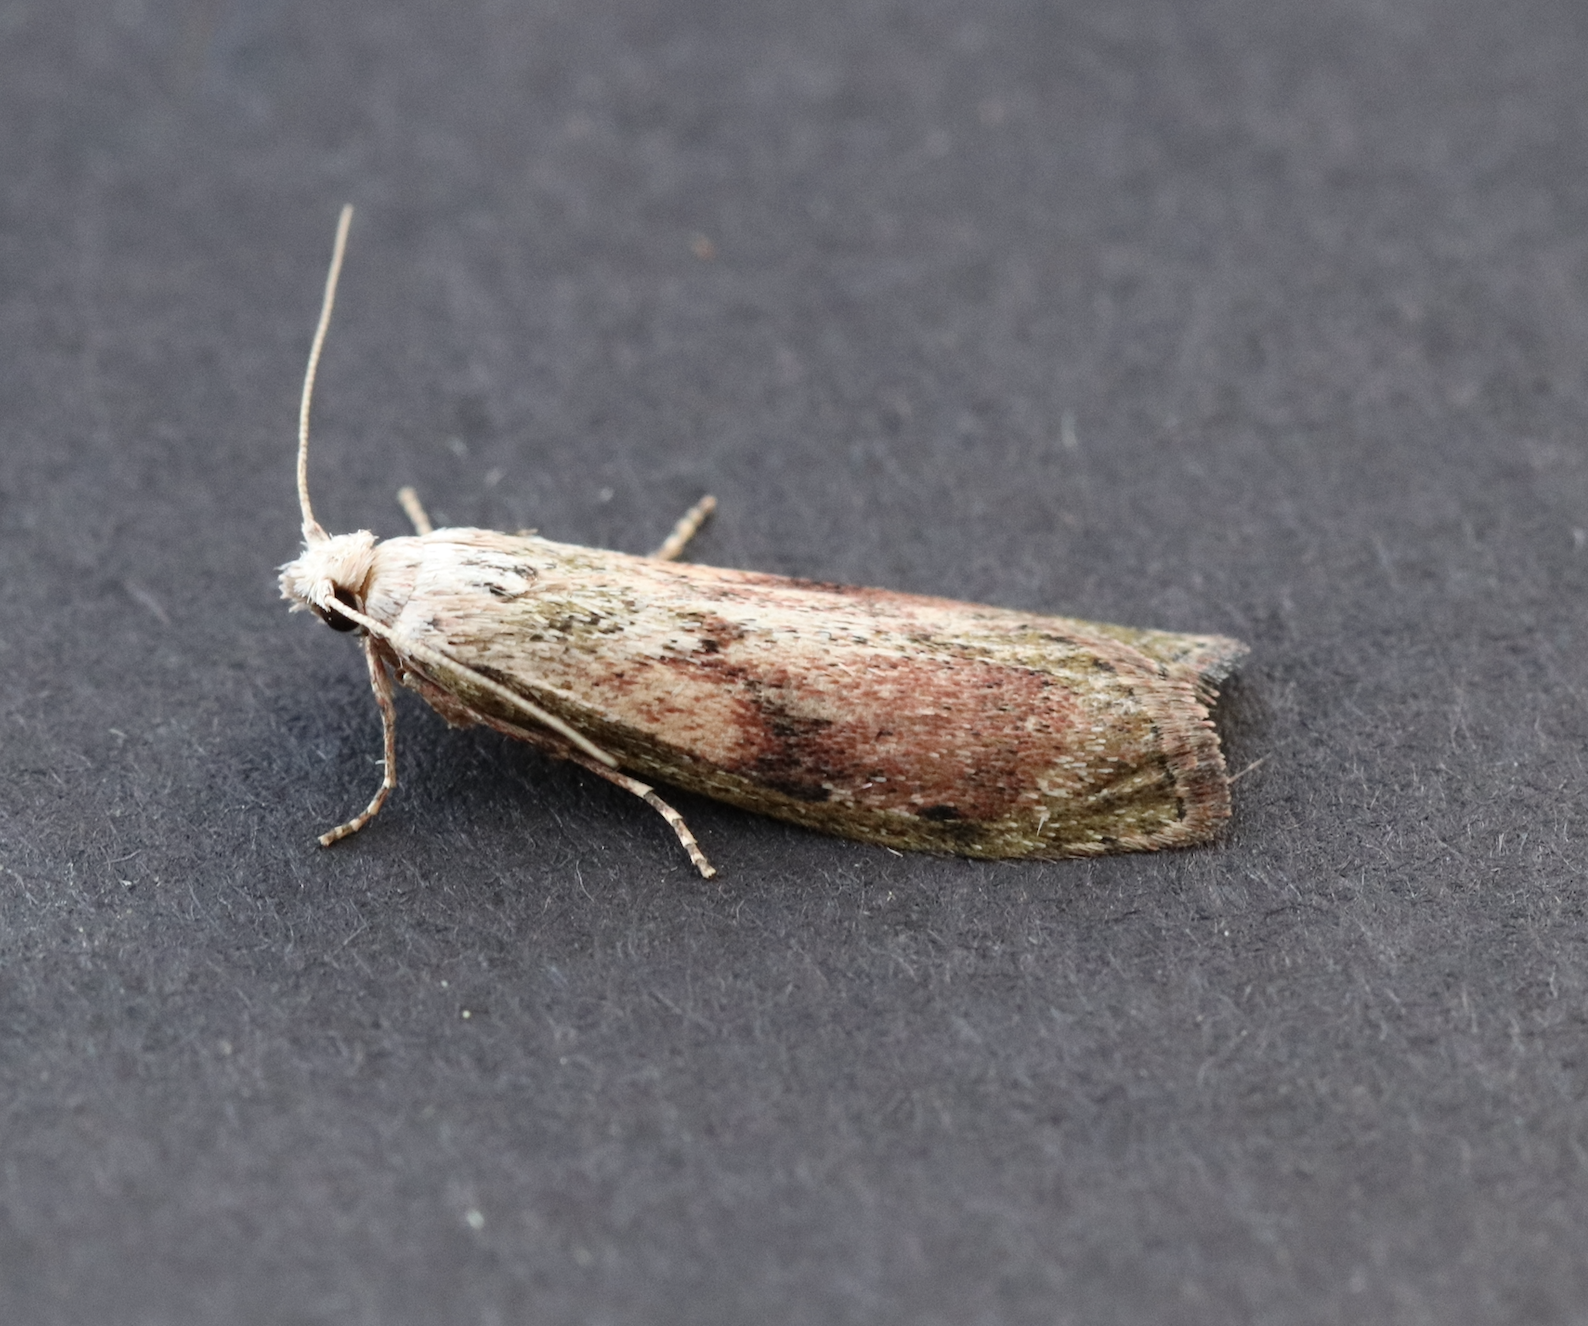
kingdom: Animalia
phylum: Arthropoda
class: Insecta
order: Lepidoptera
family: Pyralidae
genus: Aphomia
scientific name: Aphomia sociella
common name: Bee moth
